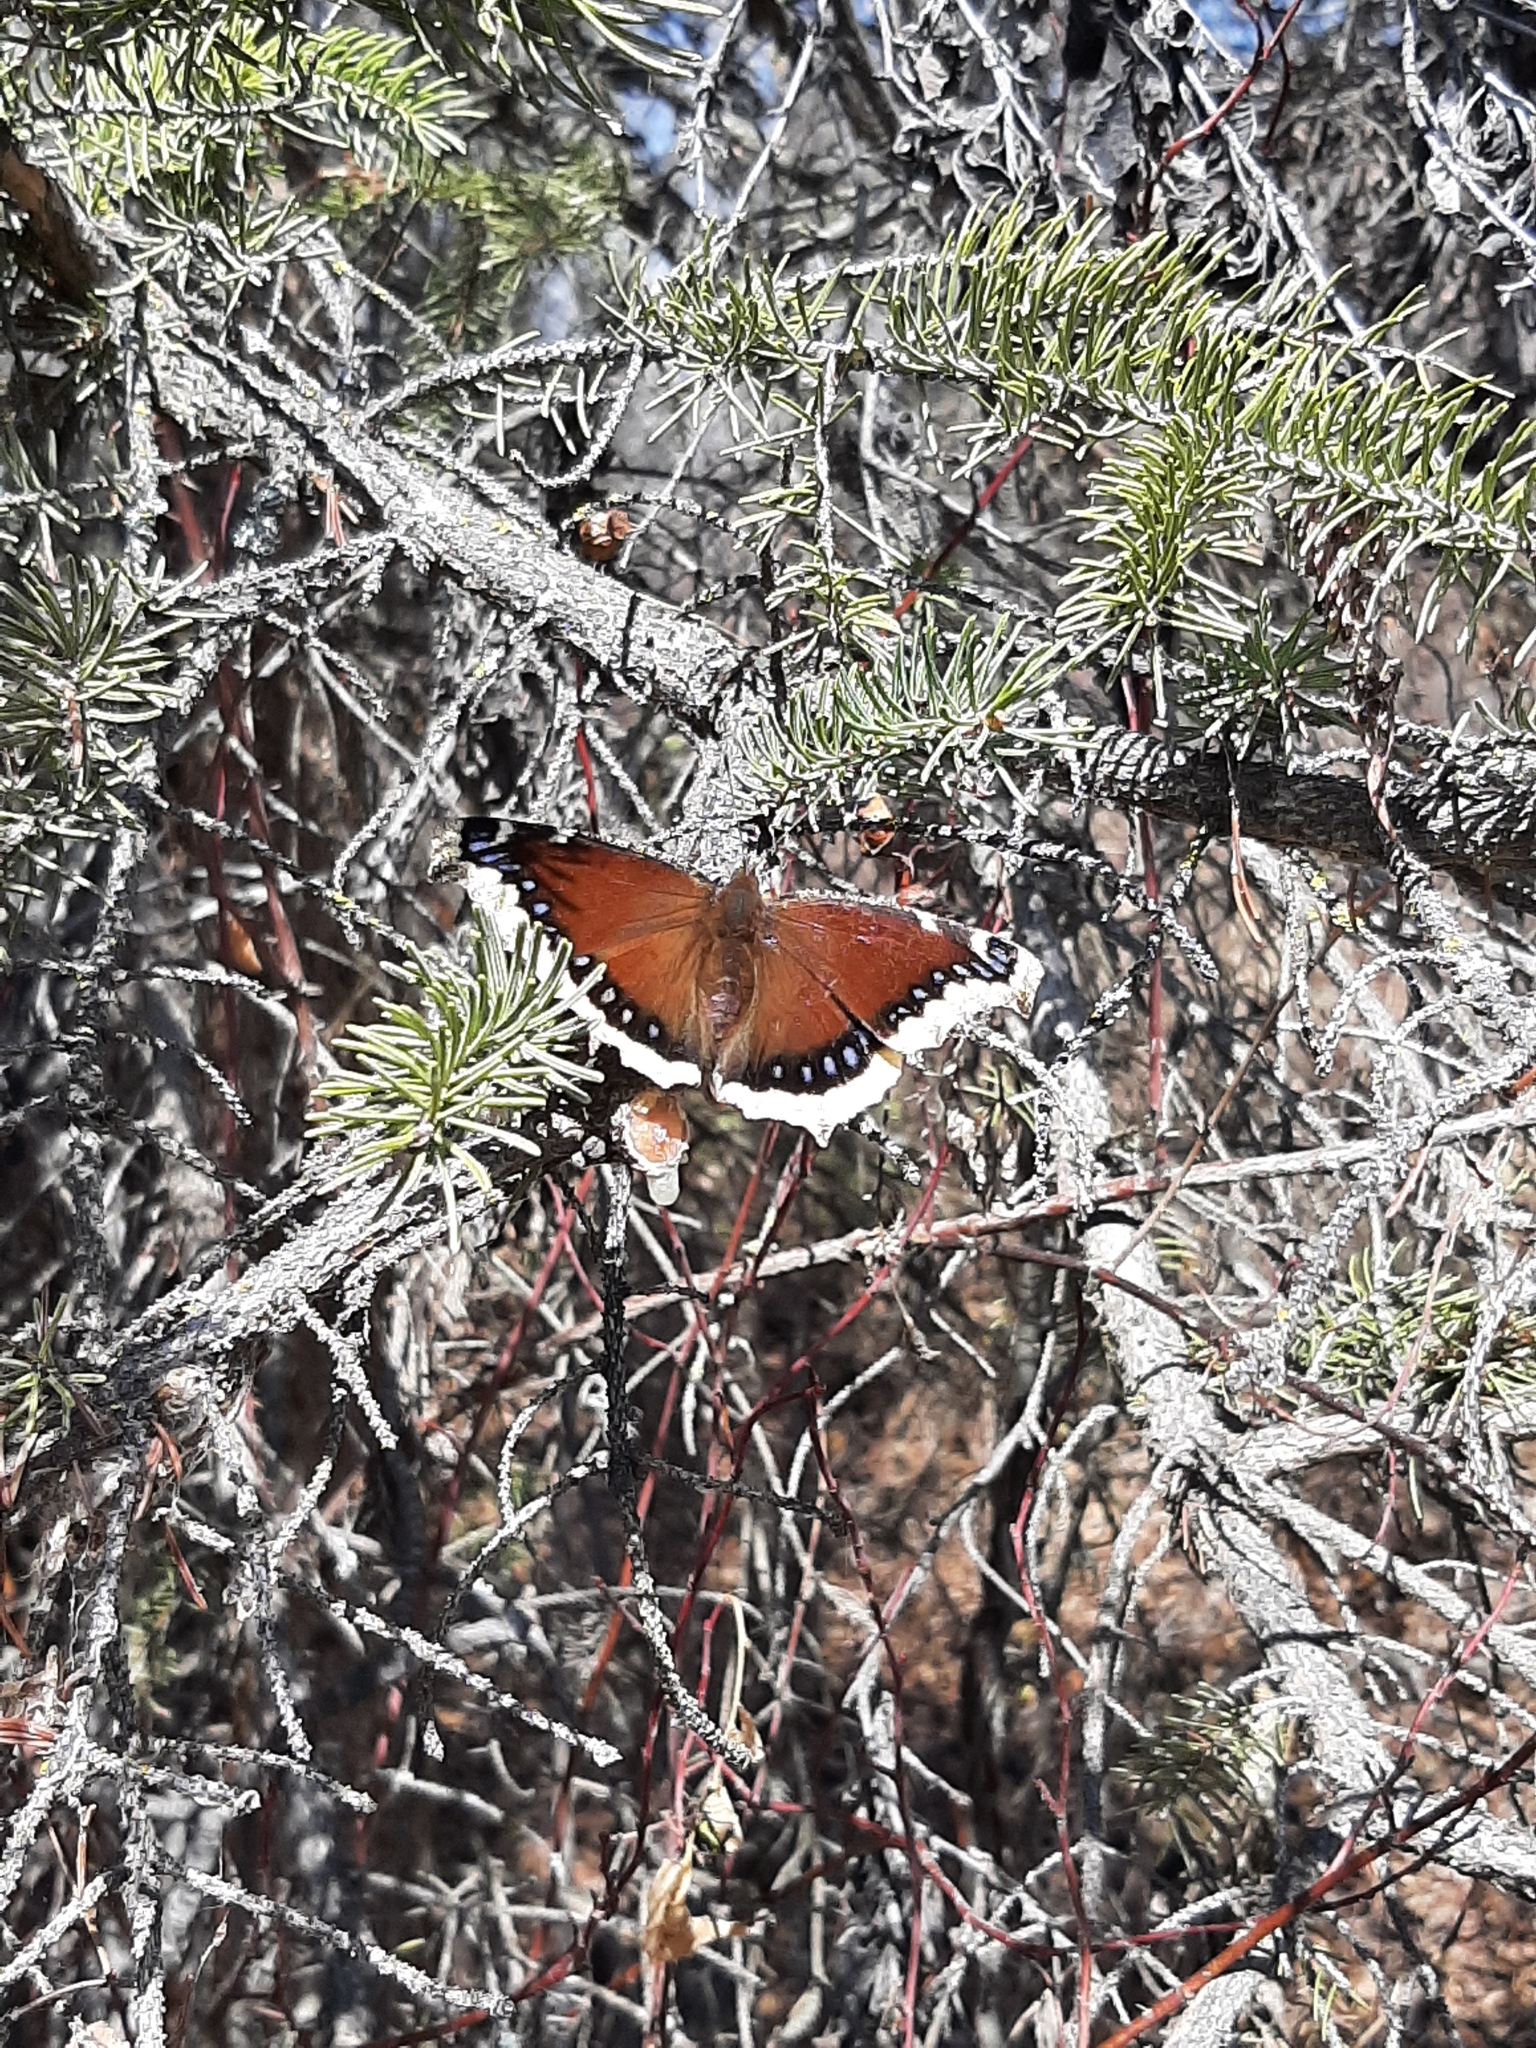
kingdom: Animalia
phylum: Arthropoda
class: Insecta
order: Lepidoptera
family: Nymphalidae
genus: Nymphalis
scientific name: Nymphalis antiopa
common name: Camberwell beauty
